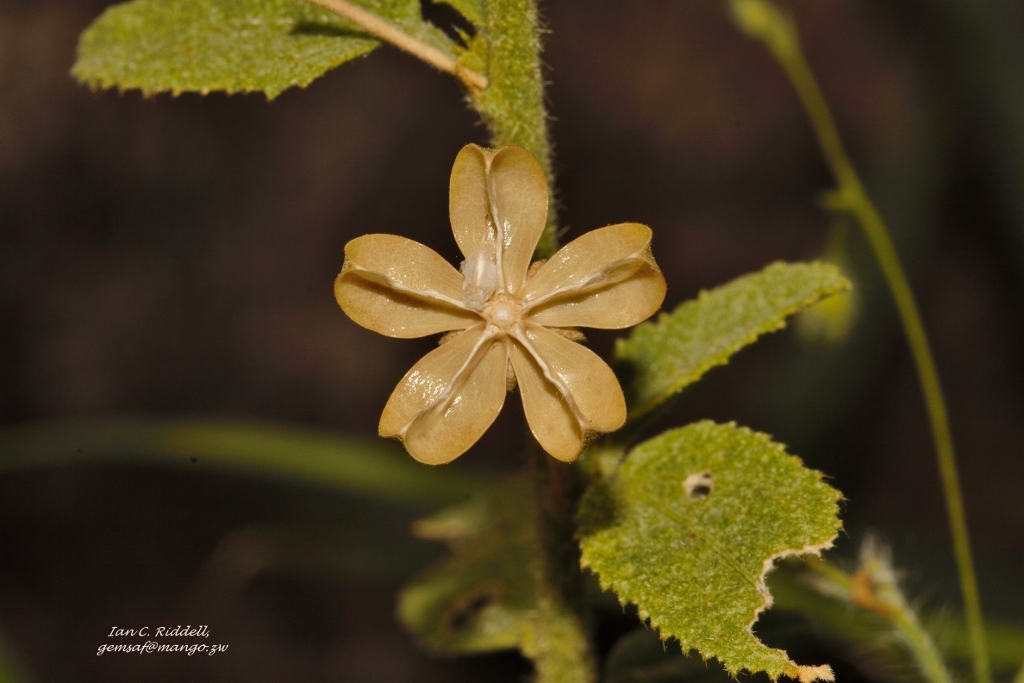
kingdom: Plantae
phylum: Tracheophyta
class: Magnoliopsida
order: Malvales
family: Malvaceae
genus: Hibiscus
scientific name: Hibiscus micranthus
